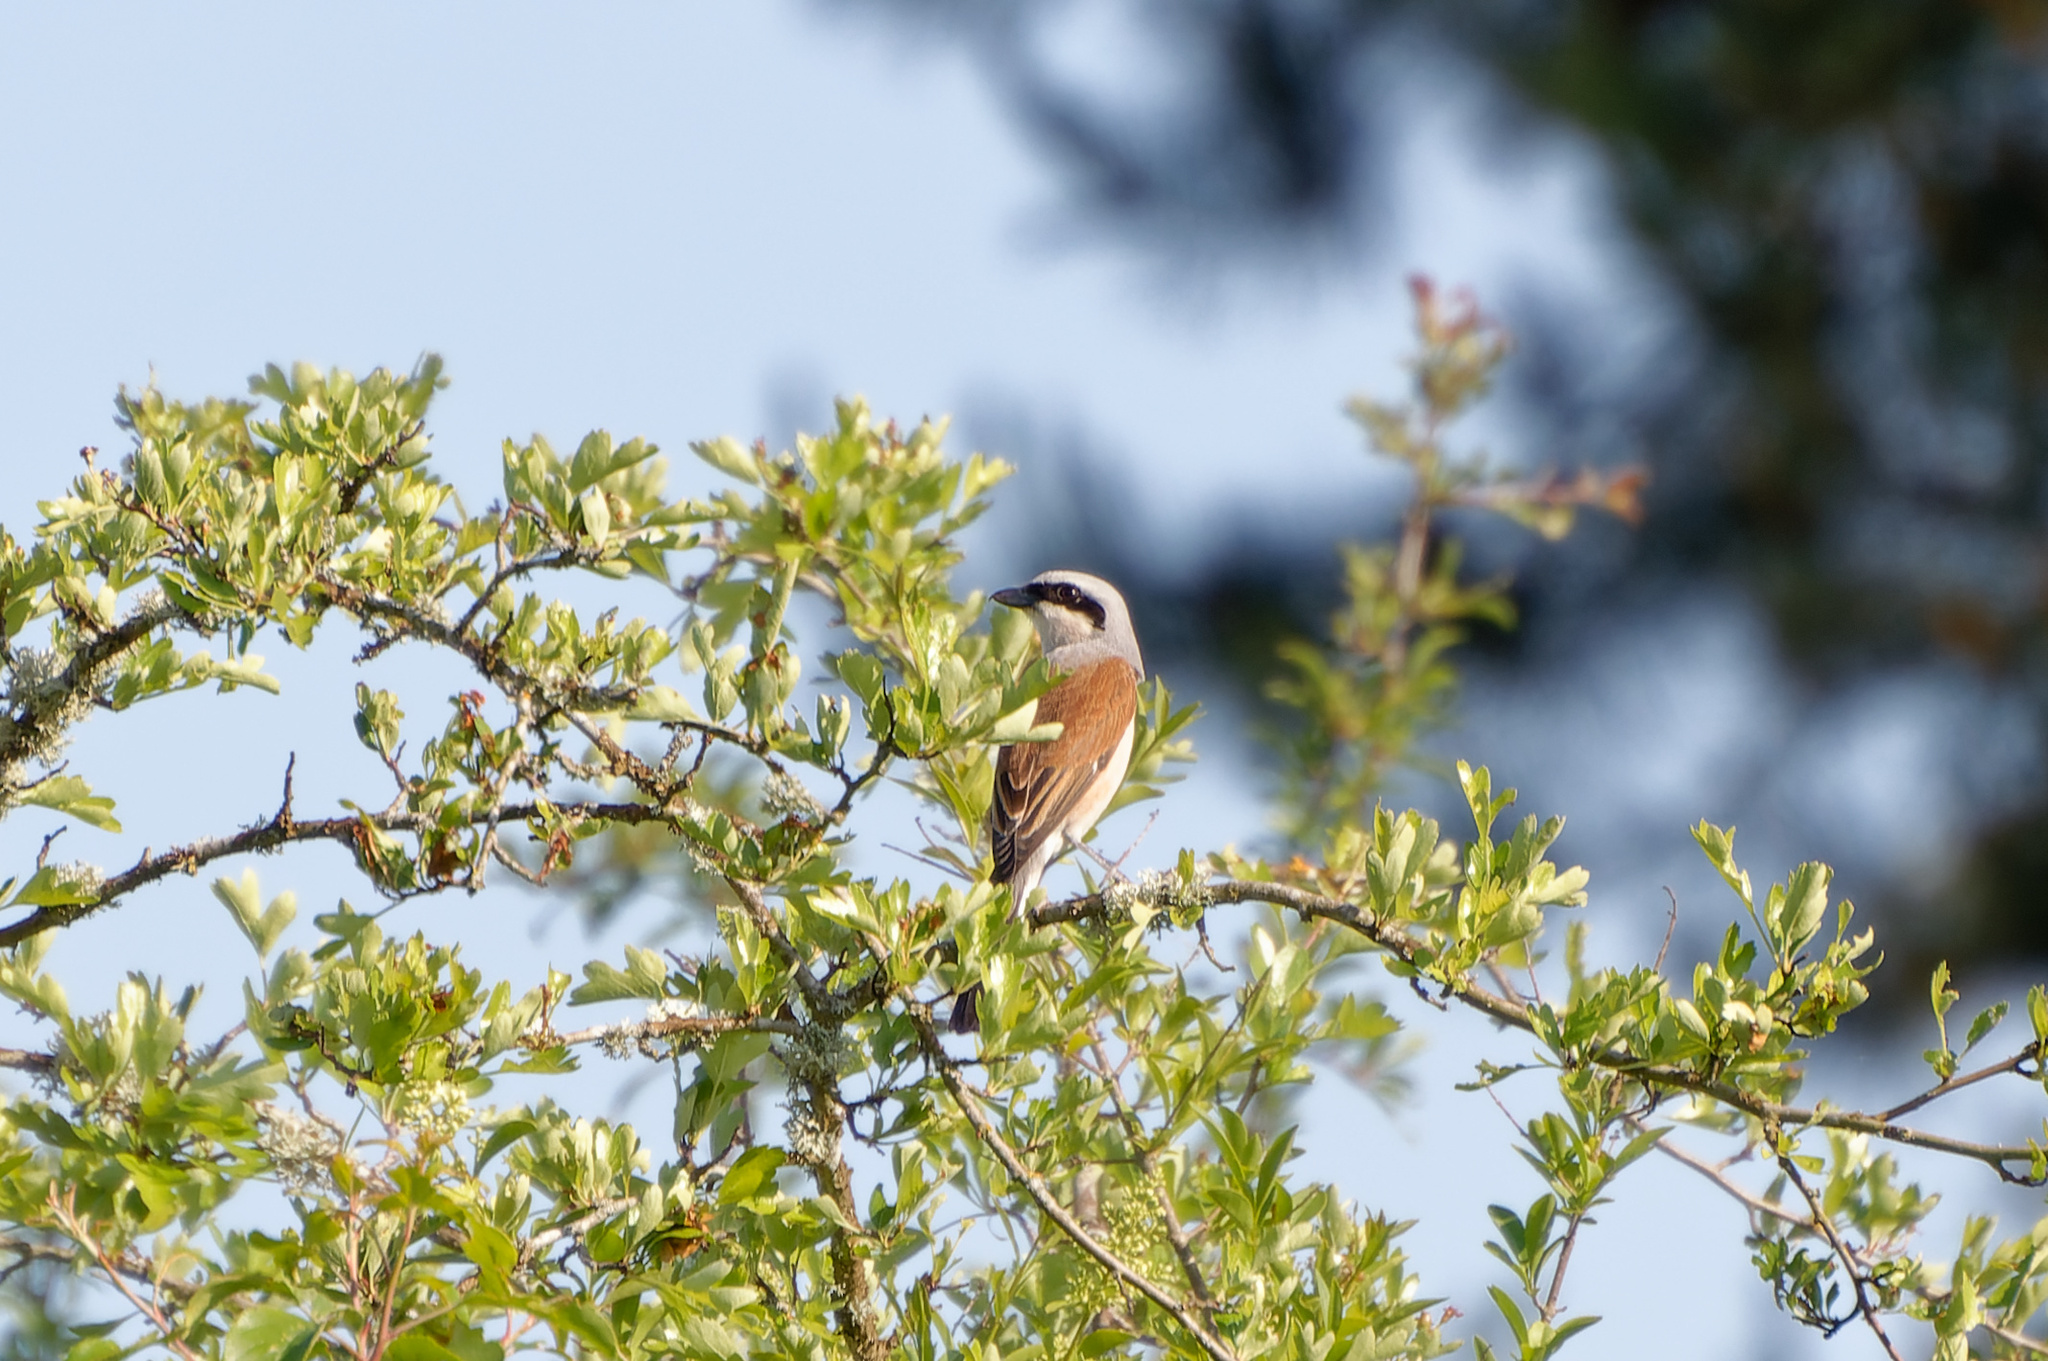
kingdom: Animalia
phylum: Chordata
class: Aves
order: Passeriformes
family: Laniidae
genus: Lanius
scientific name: Lanius collurio
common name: Red-backed shrike
